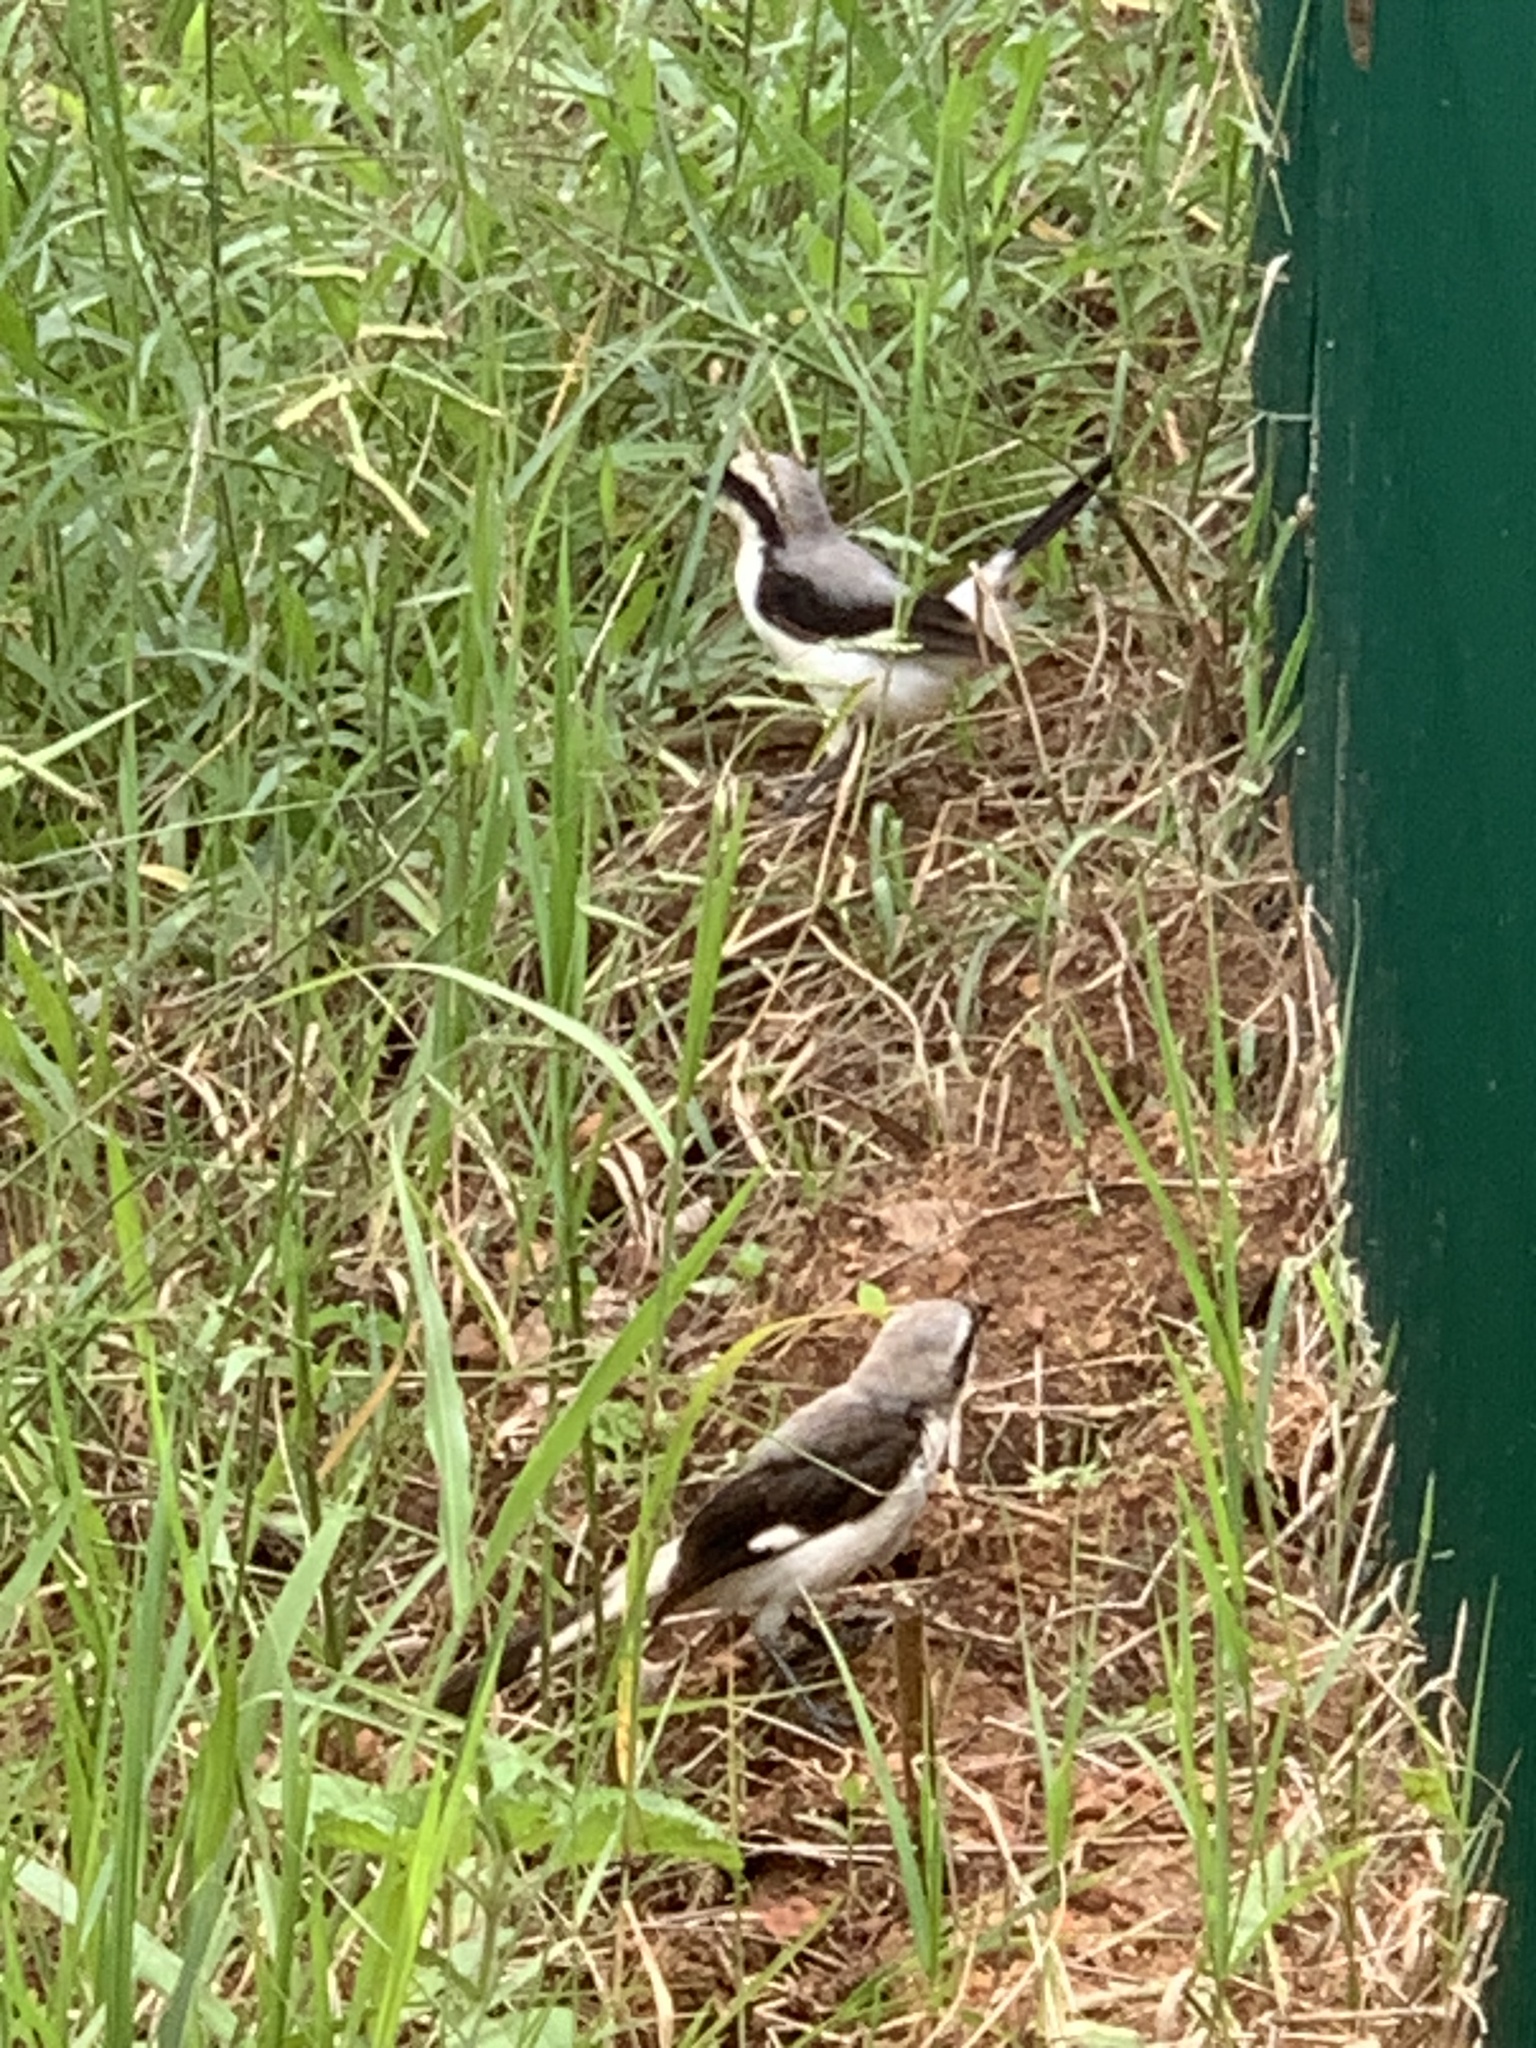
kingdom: Animalia
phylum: Chordata
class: Aves
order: Passeriformes
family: Laniidae
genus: Lanius
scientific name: Lanius excubitoroides
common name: Grey-backed fiscal
